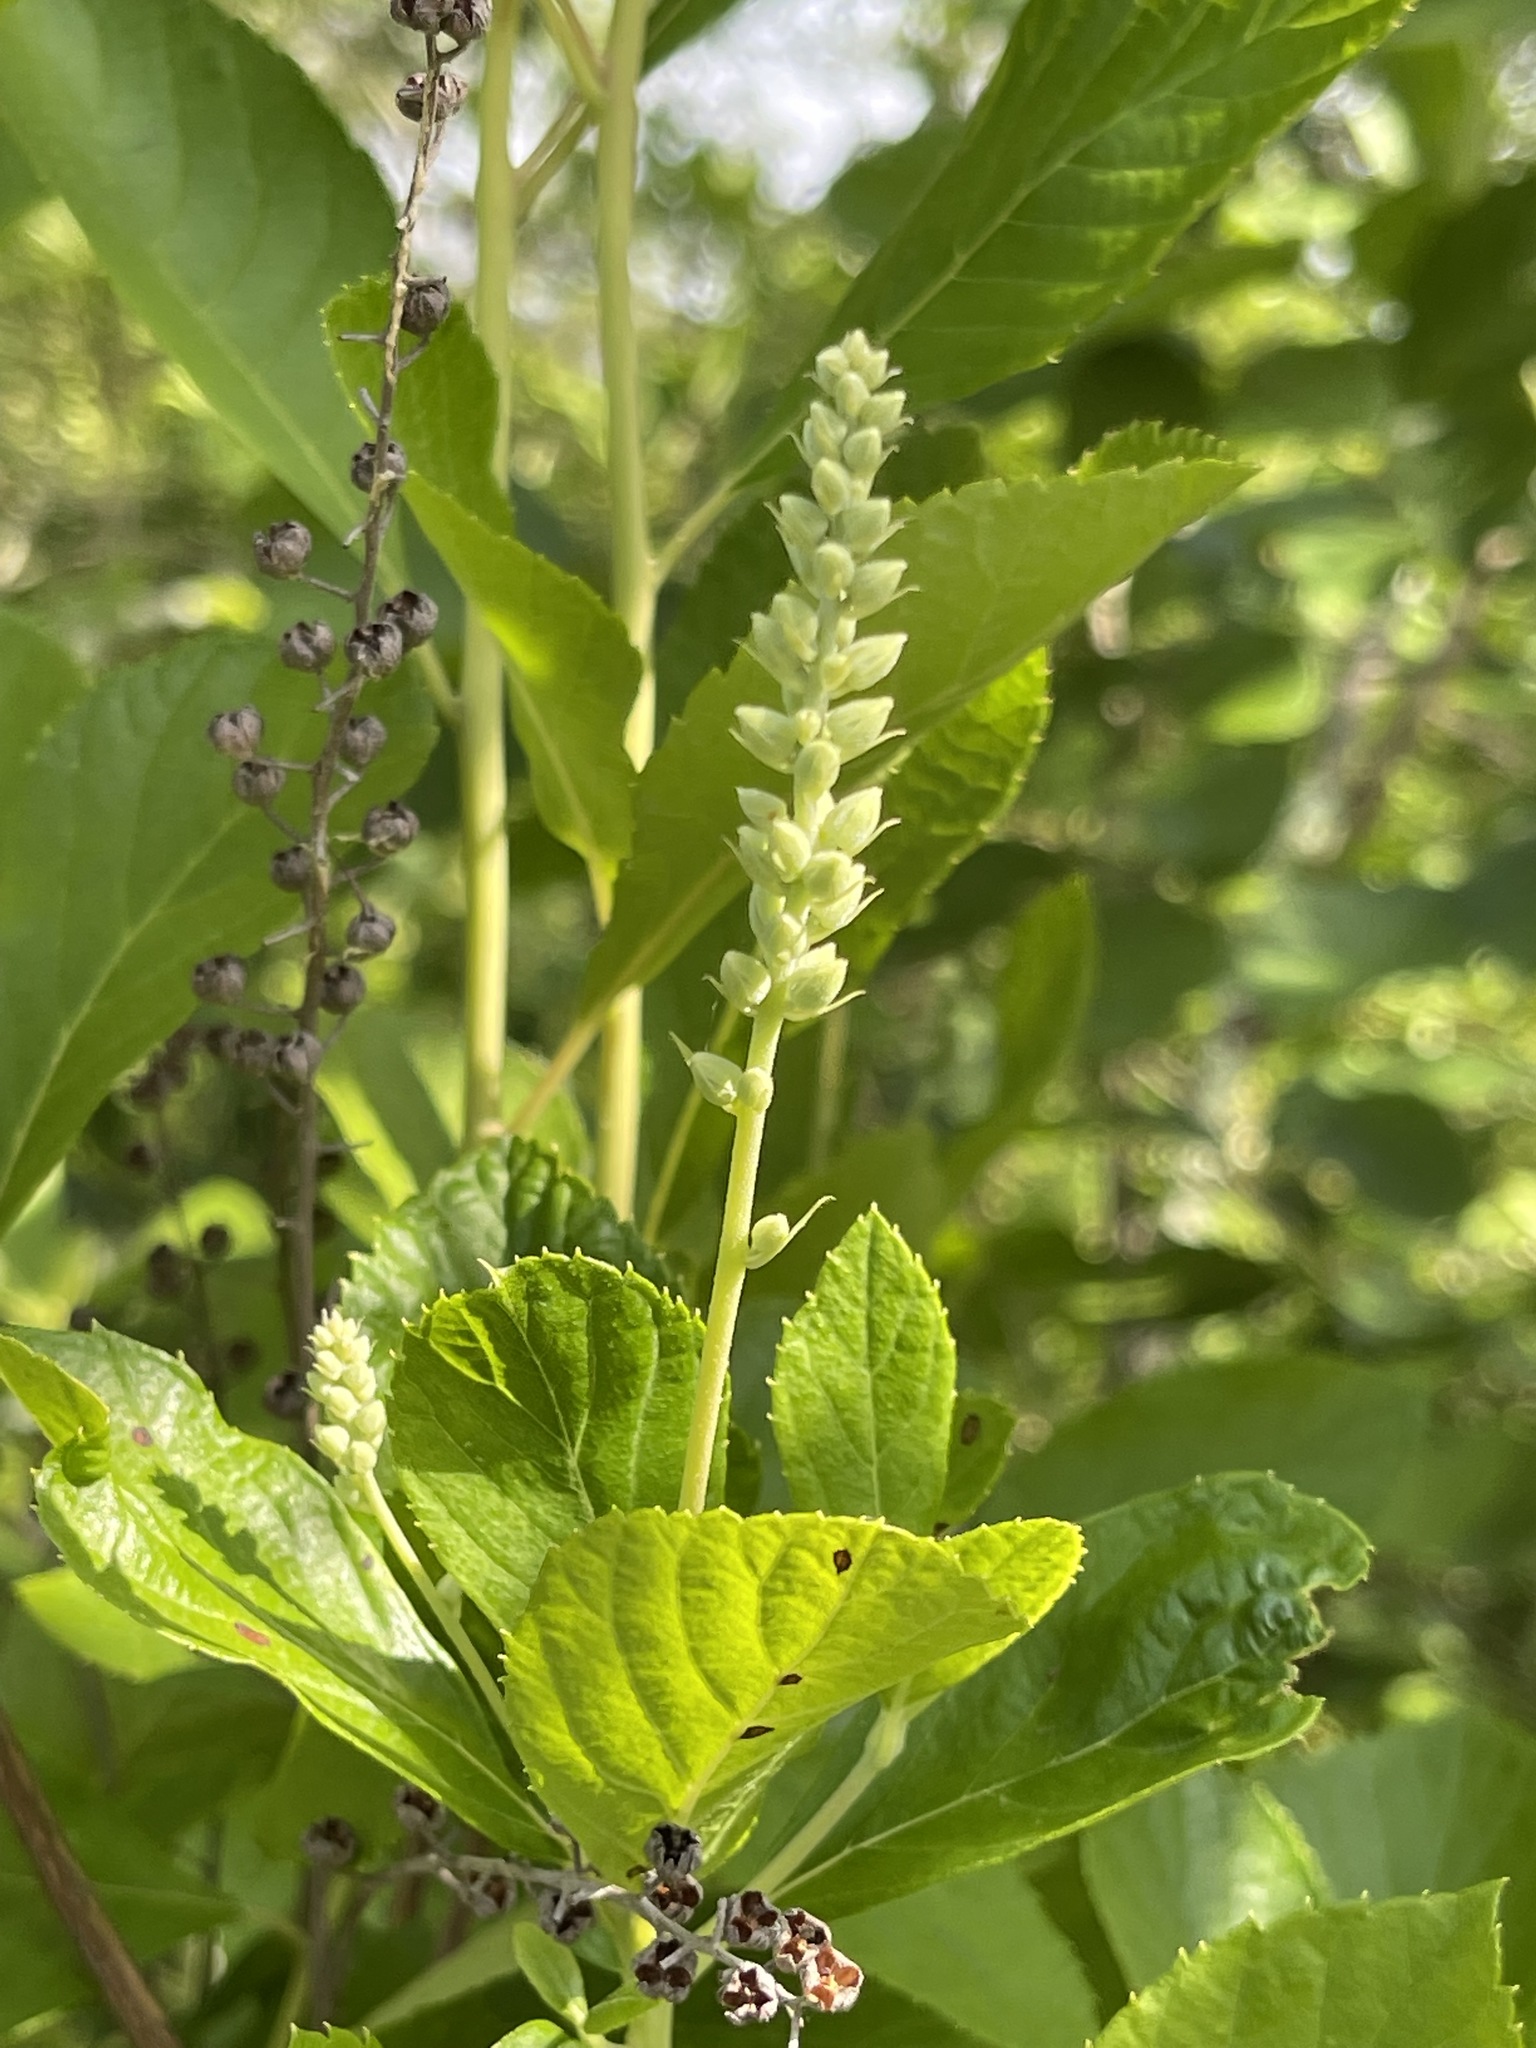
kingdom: Plantae
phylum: Tracheophyta
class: Magnoliopsida
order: Ericales
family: Clethraceae
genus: Clethra
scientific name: Clethra alnifolia
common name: Sweet pepperbush
